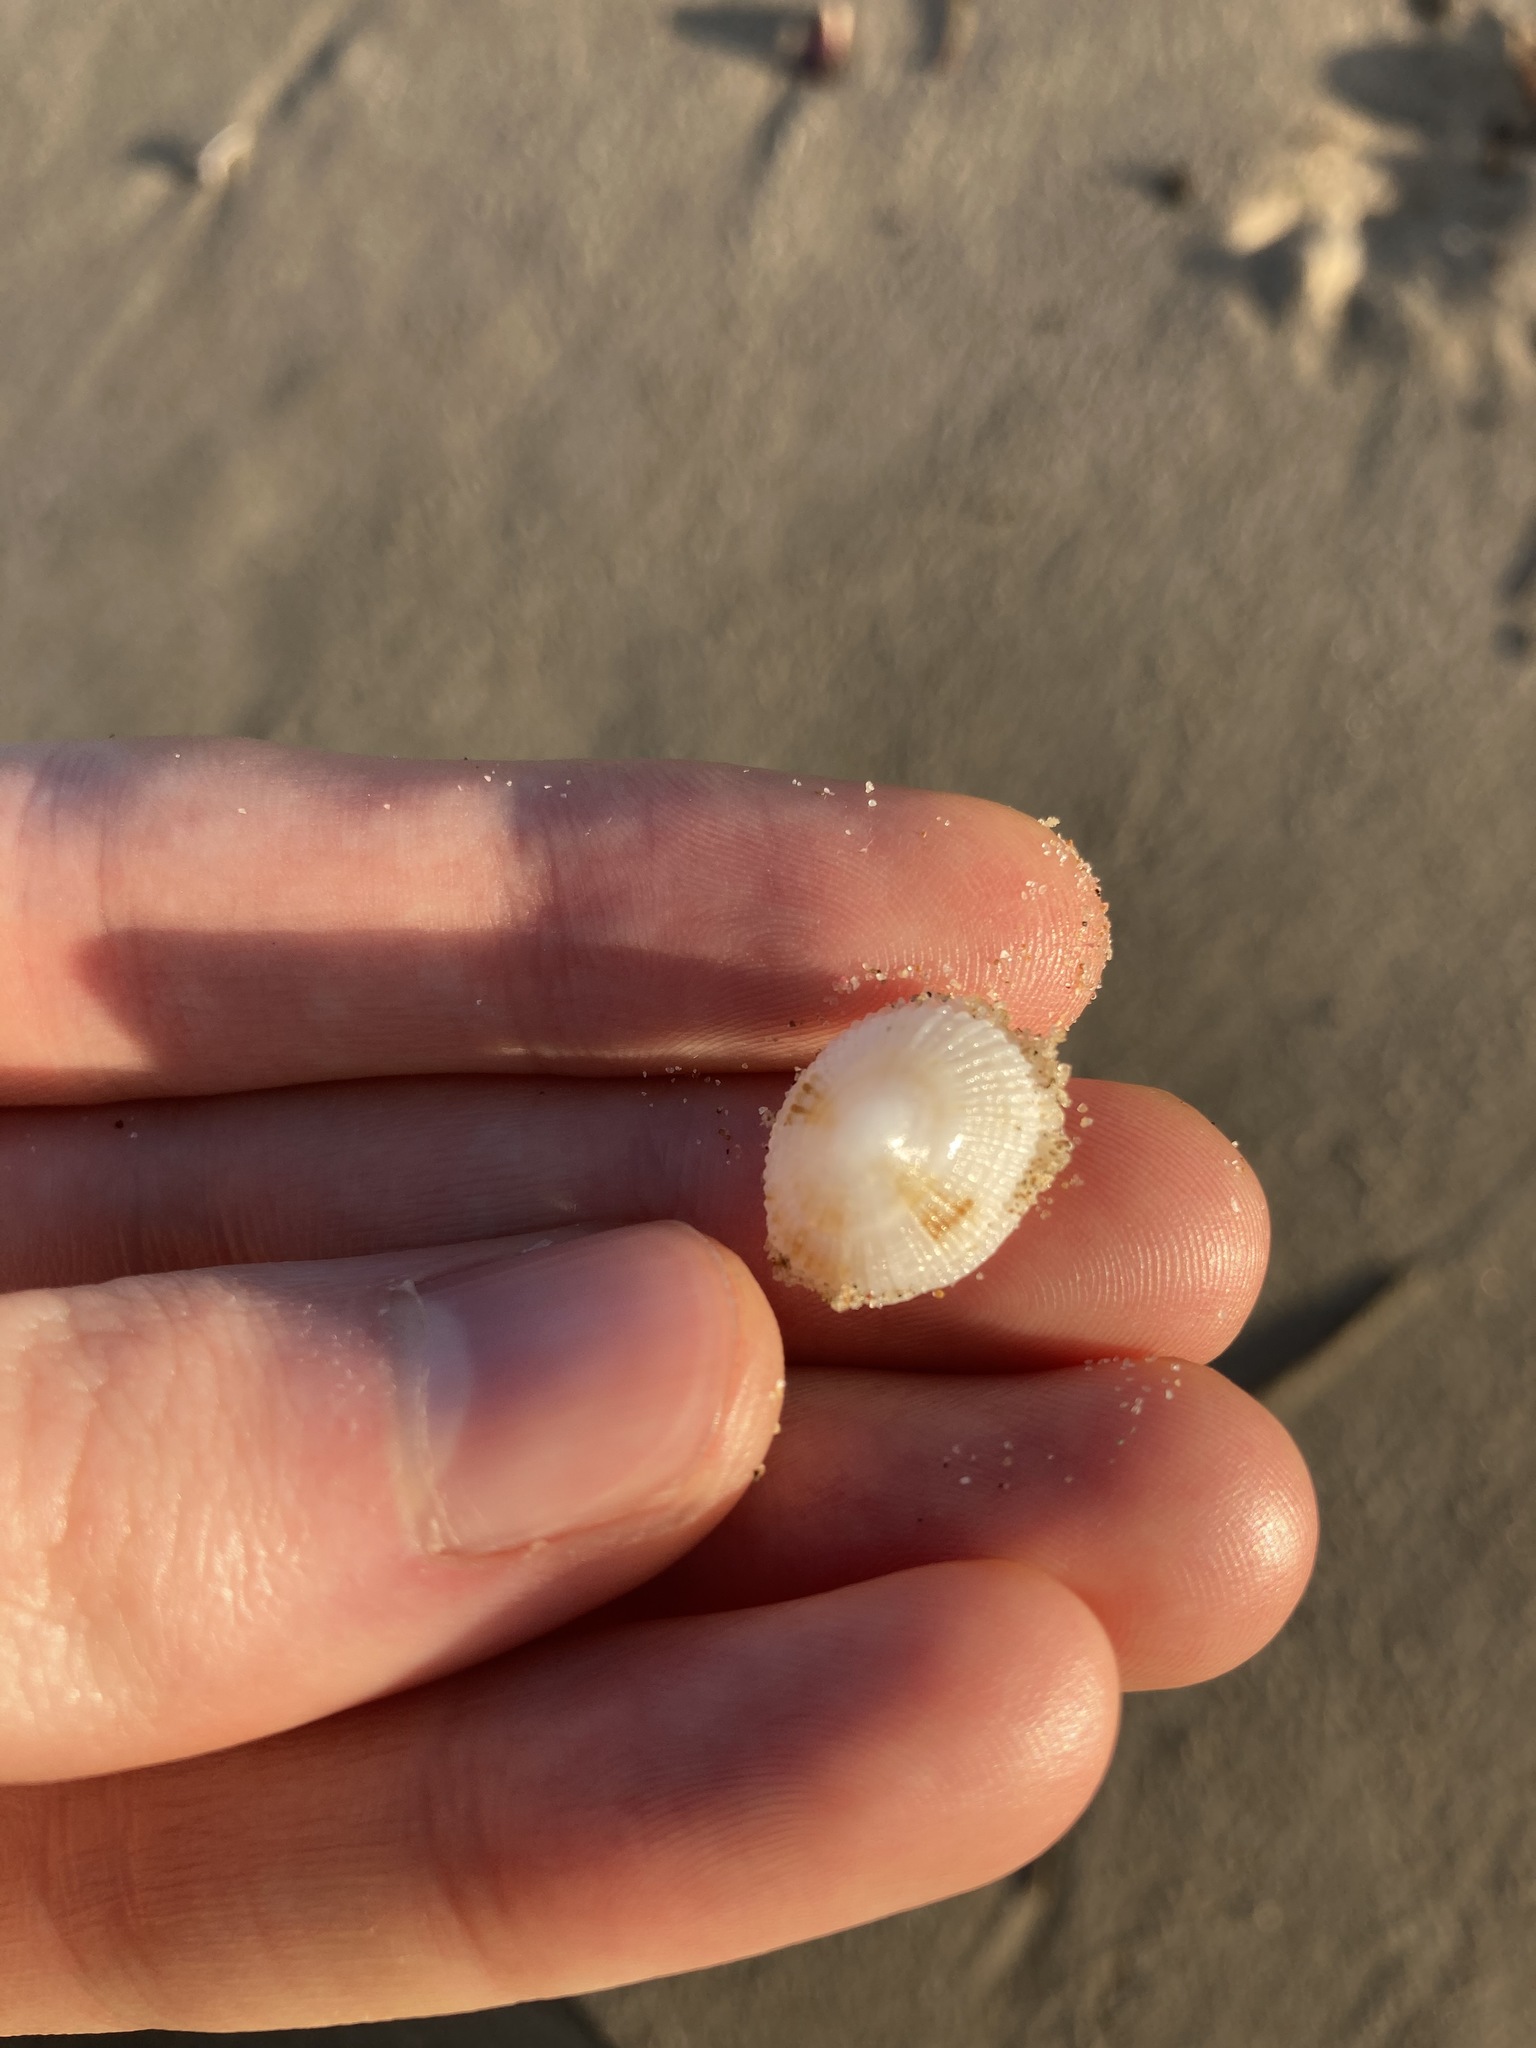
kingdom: Animalia
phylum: Mollusca
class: Gastropoda
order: Lepetellida
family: Fissurellidae
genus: Montfortula
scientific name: Montfortula rugosa
